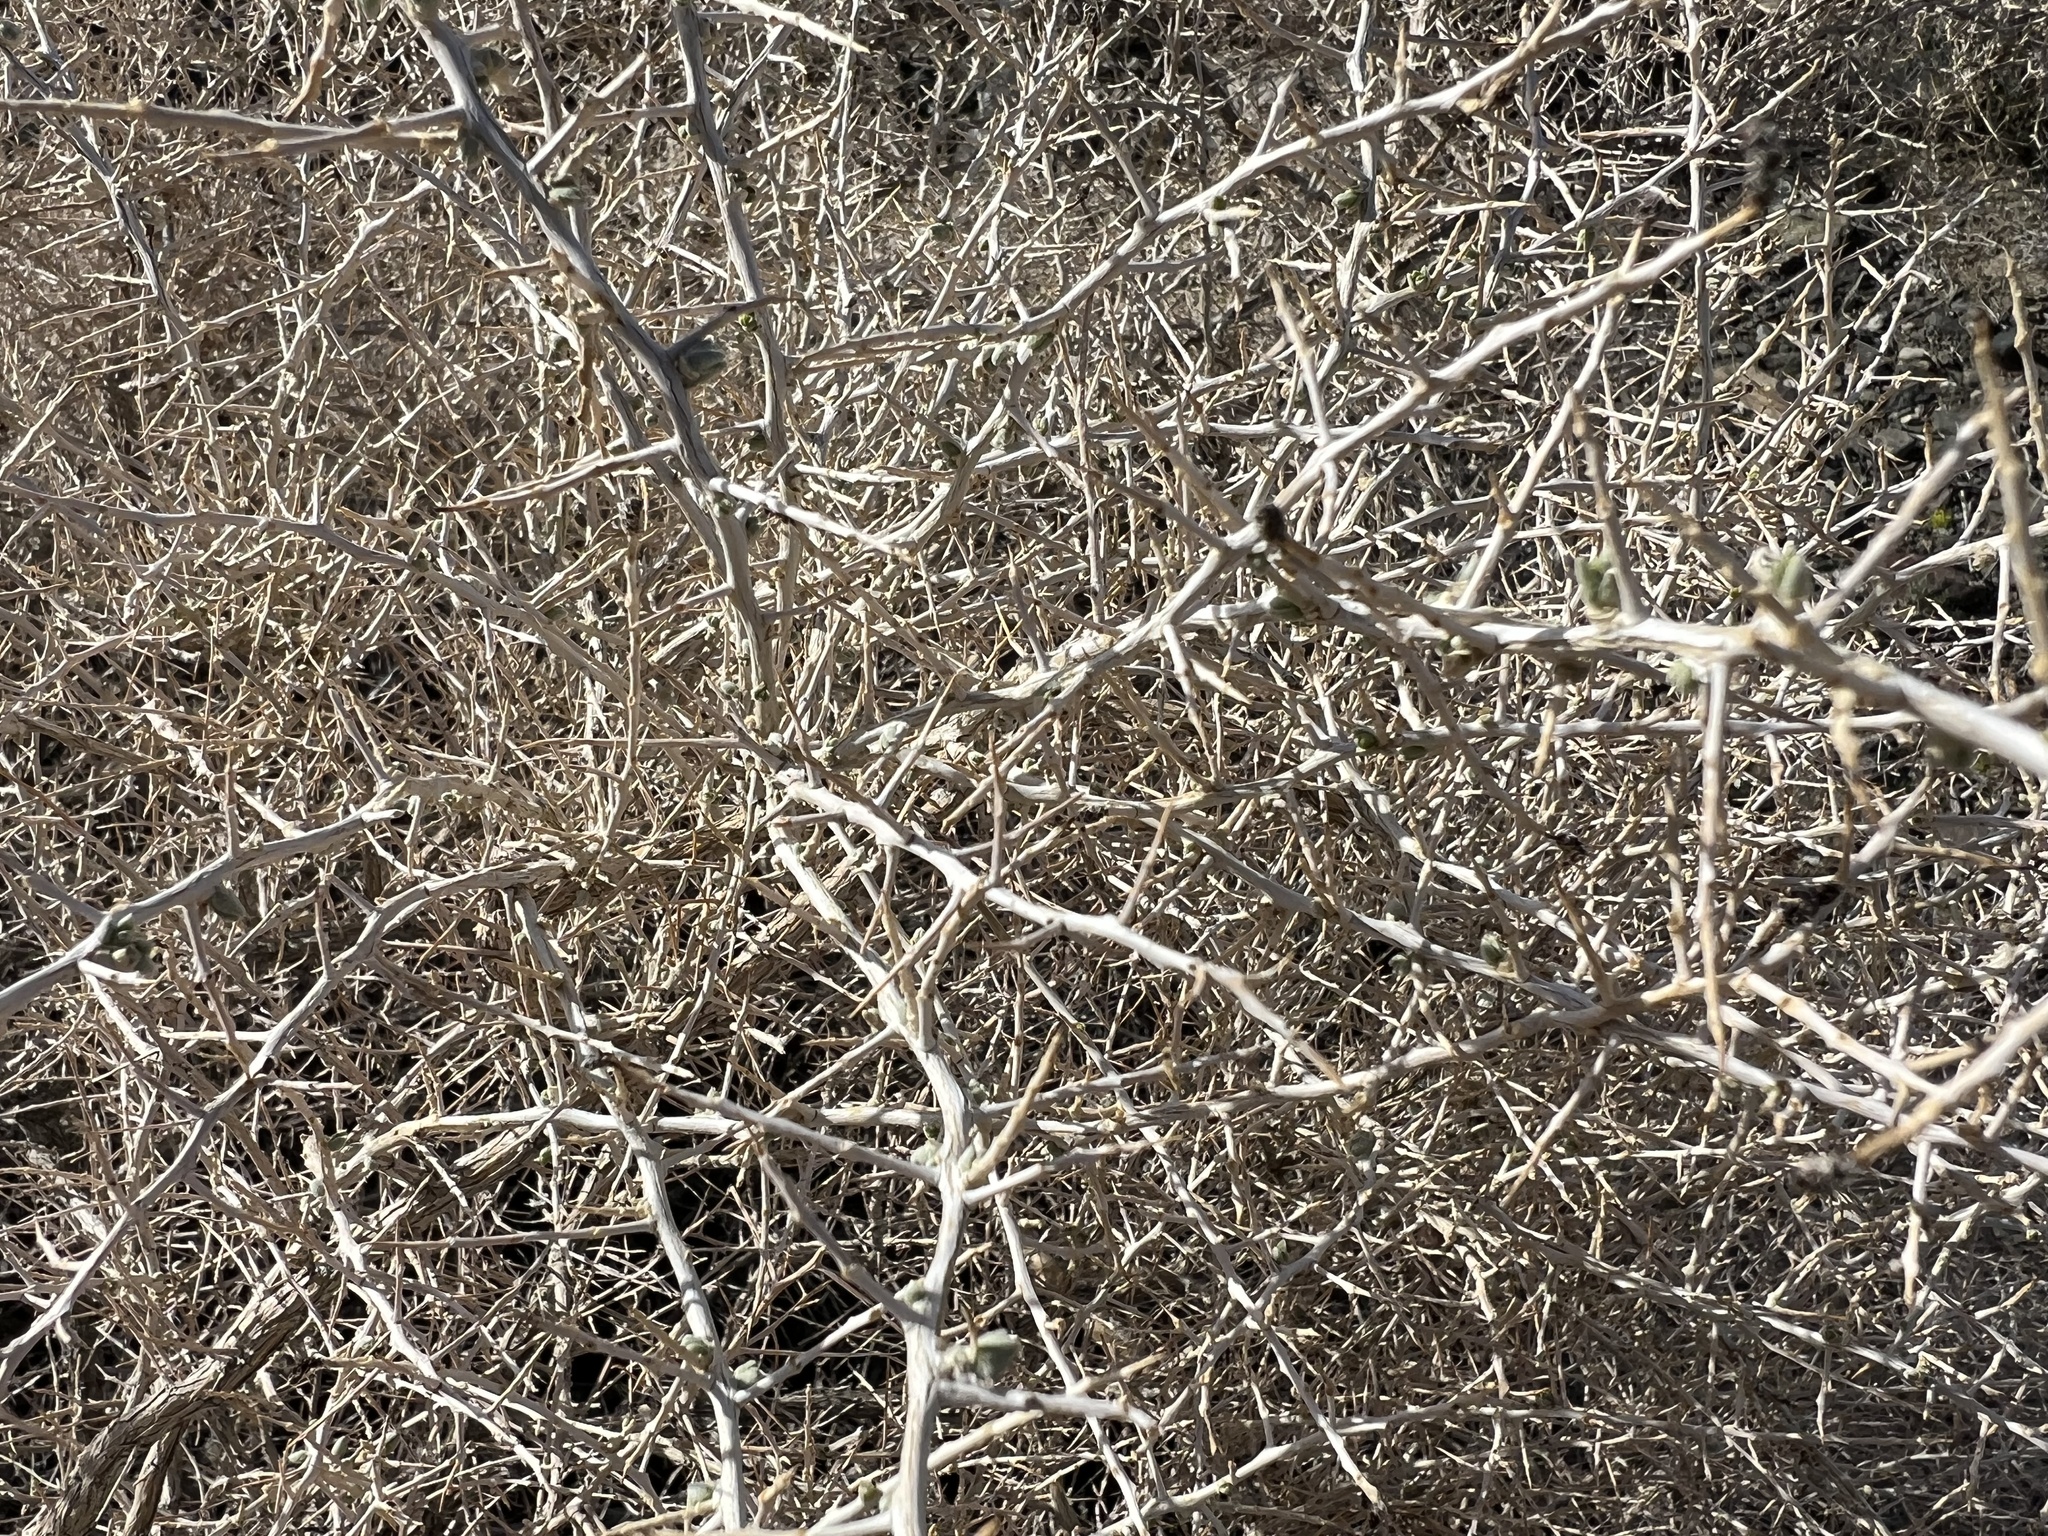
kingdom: Plantae
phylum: Tracheophyta
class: Magnoliopsida
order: Caryophyllales
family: Sarcobataceae
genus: Sarcobatus
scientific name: Sarcobatus vermiculatus
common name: Greasewood
